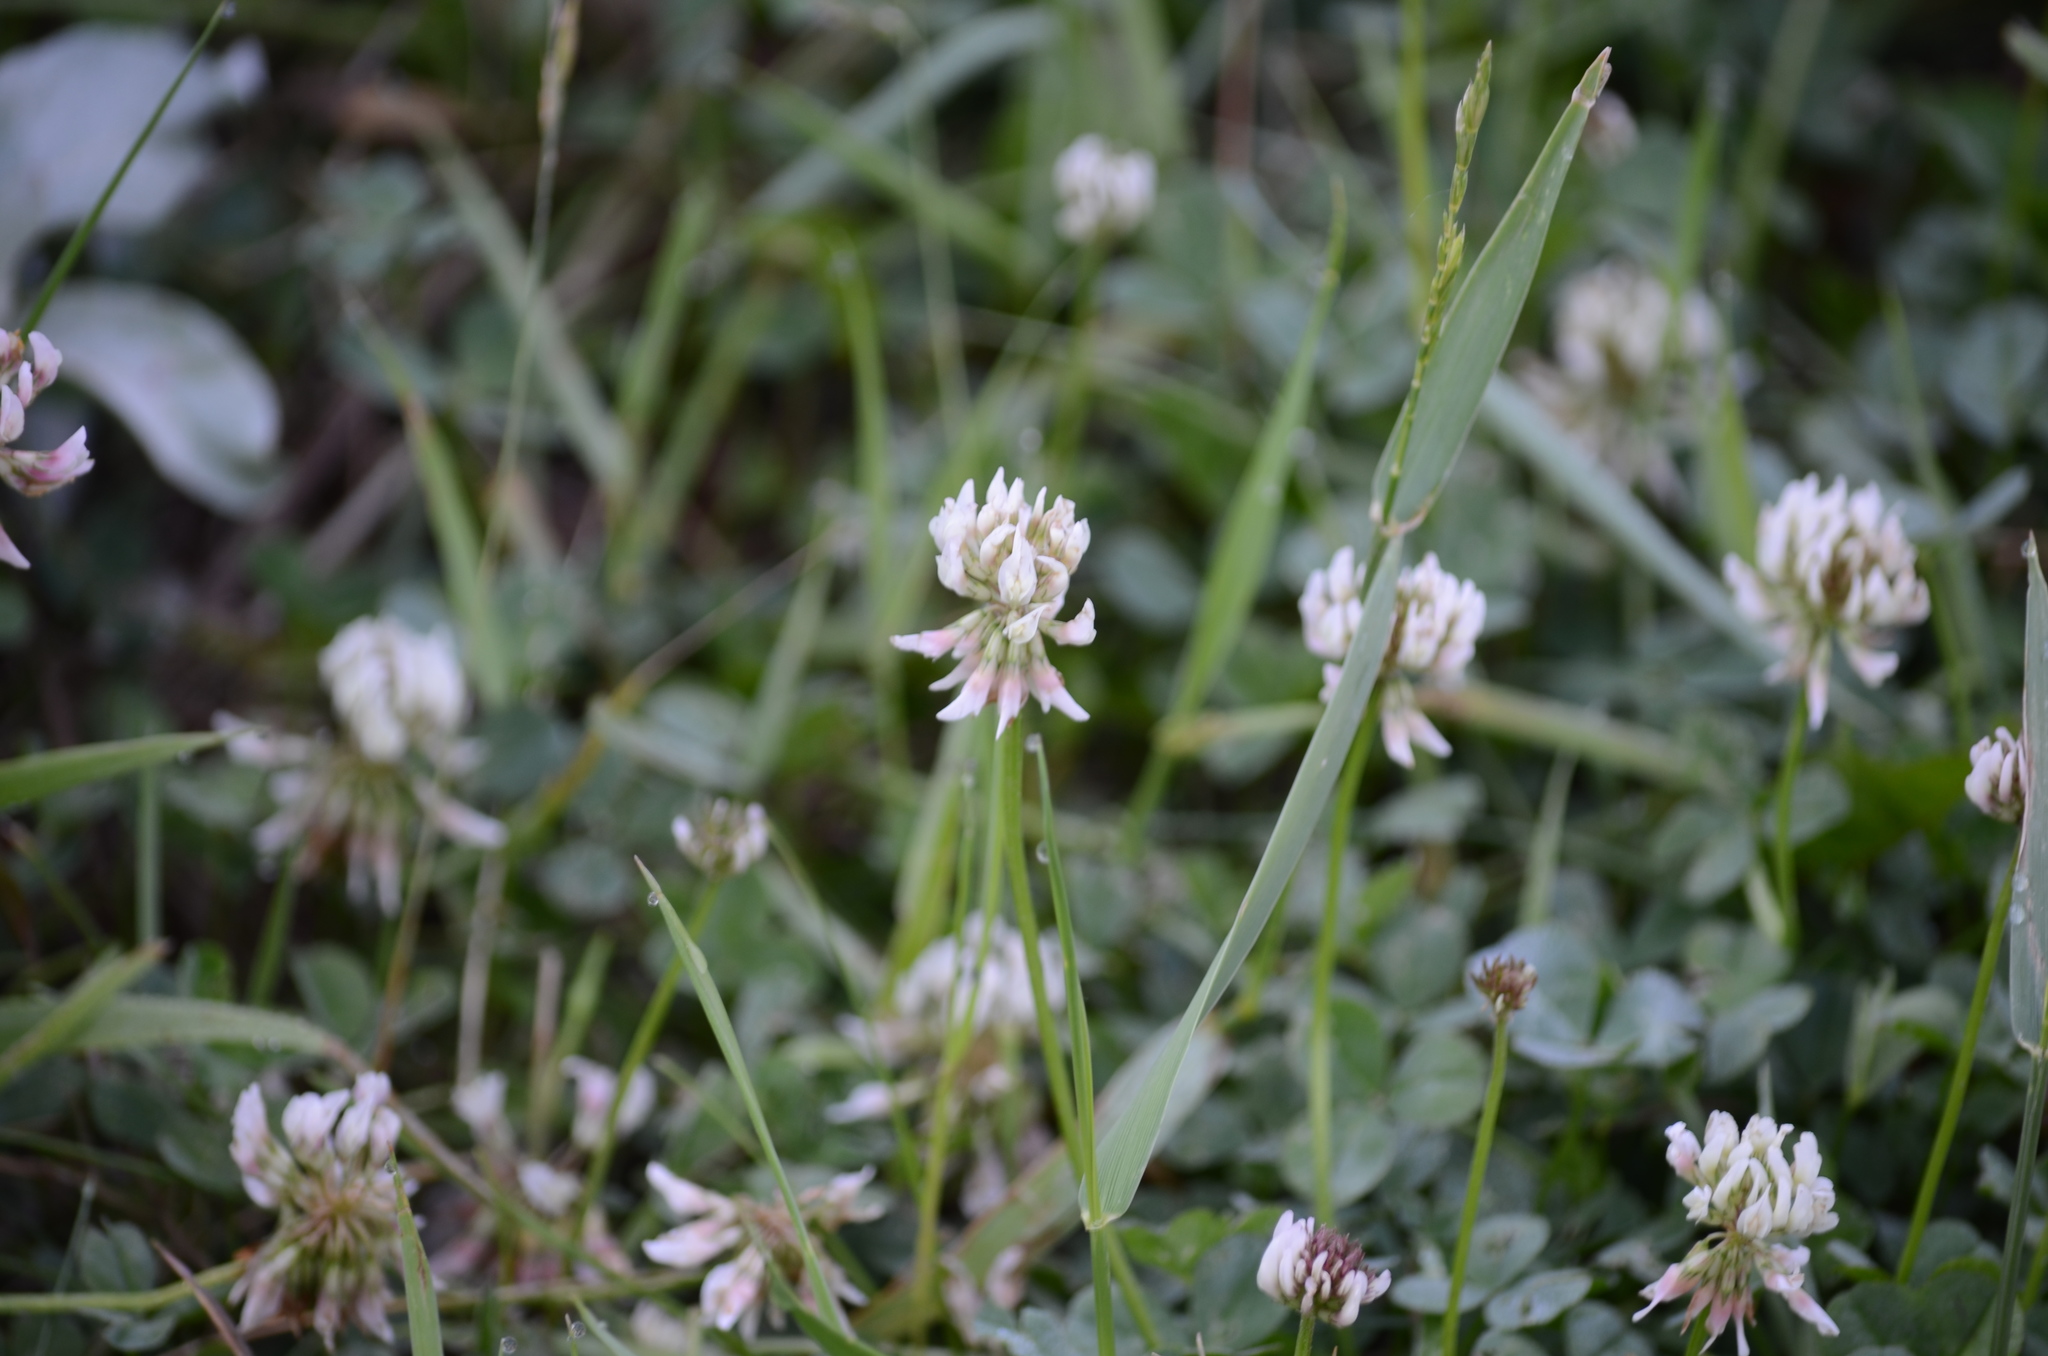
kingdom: Plantae
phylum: Tracheophyta
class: Magnoliopsida
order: Fabales
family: Fabaceae
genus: Trifolium
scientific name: Trifolium repens
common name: White clover
